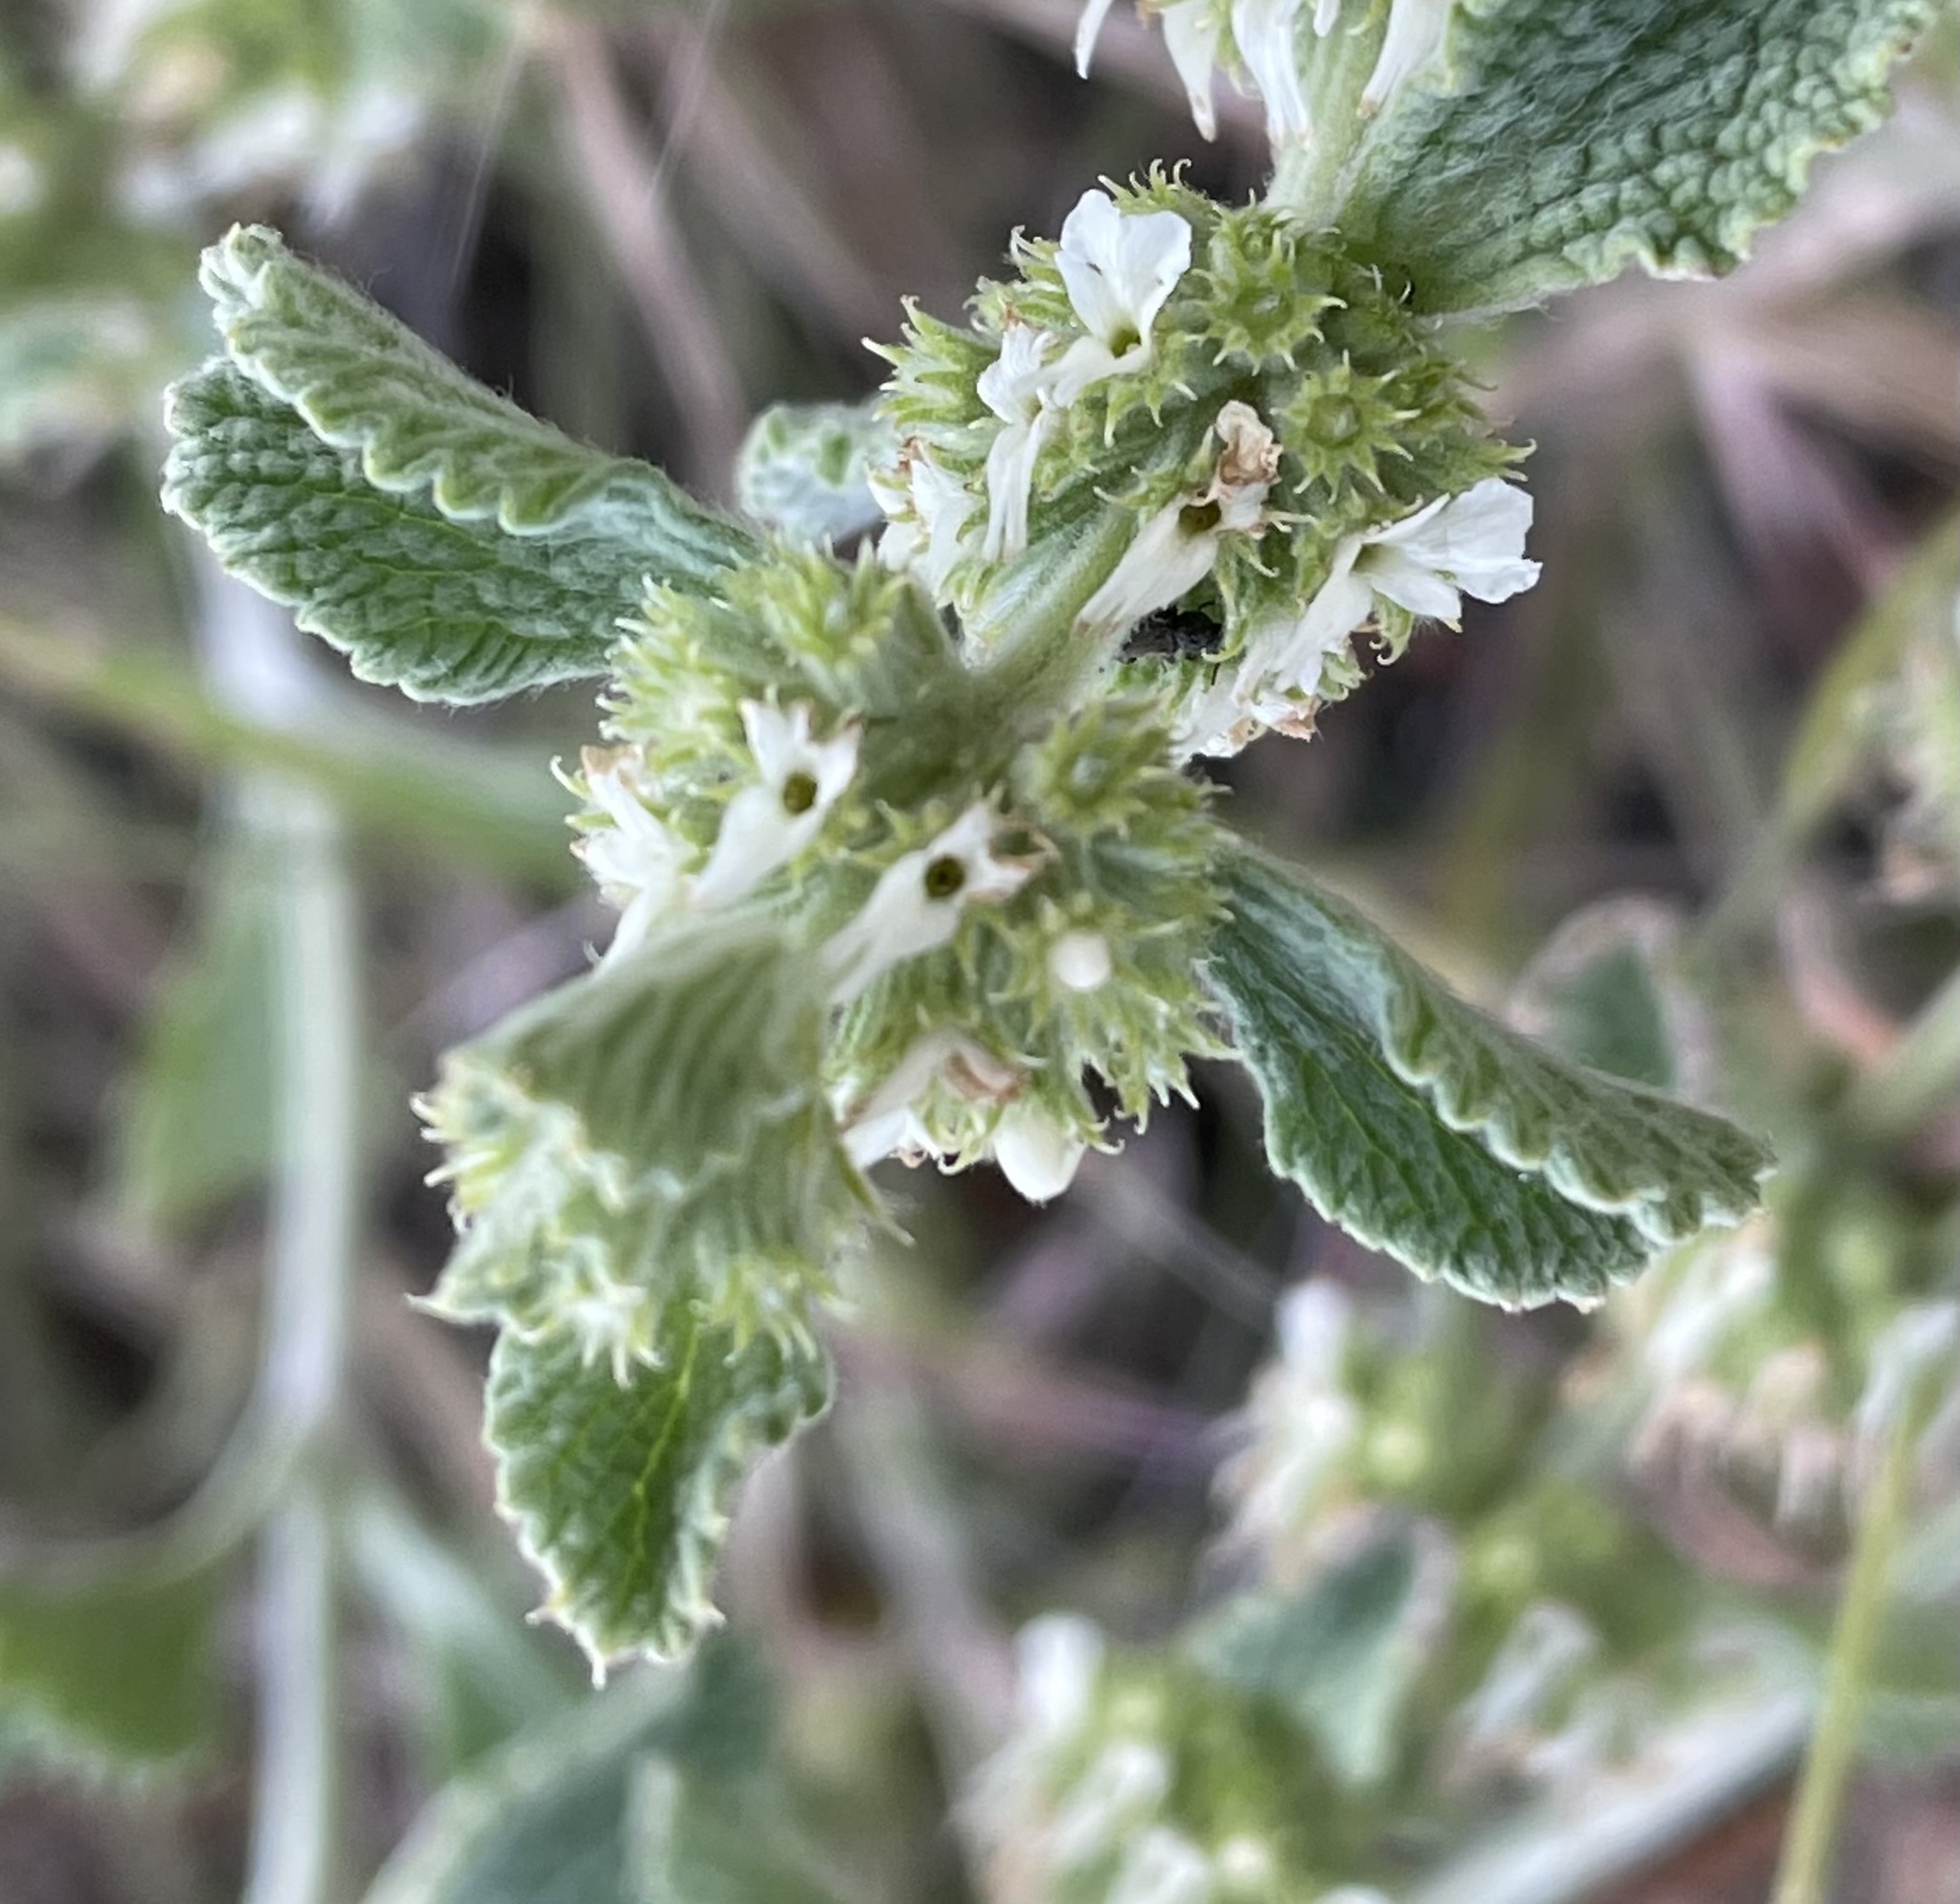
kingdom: Plantae
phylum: Tracheophyta
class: Magnoliopsida
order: Lamiales
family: Lamiaceae
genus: Marrubium
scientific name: Marrubium vulgare
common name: Horehound
